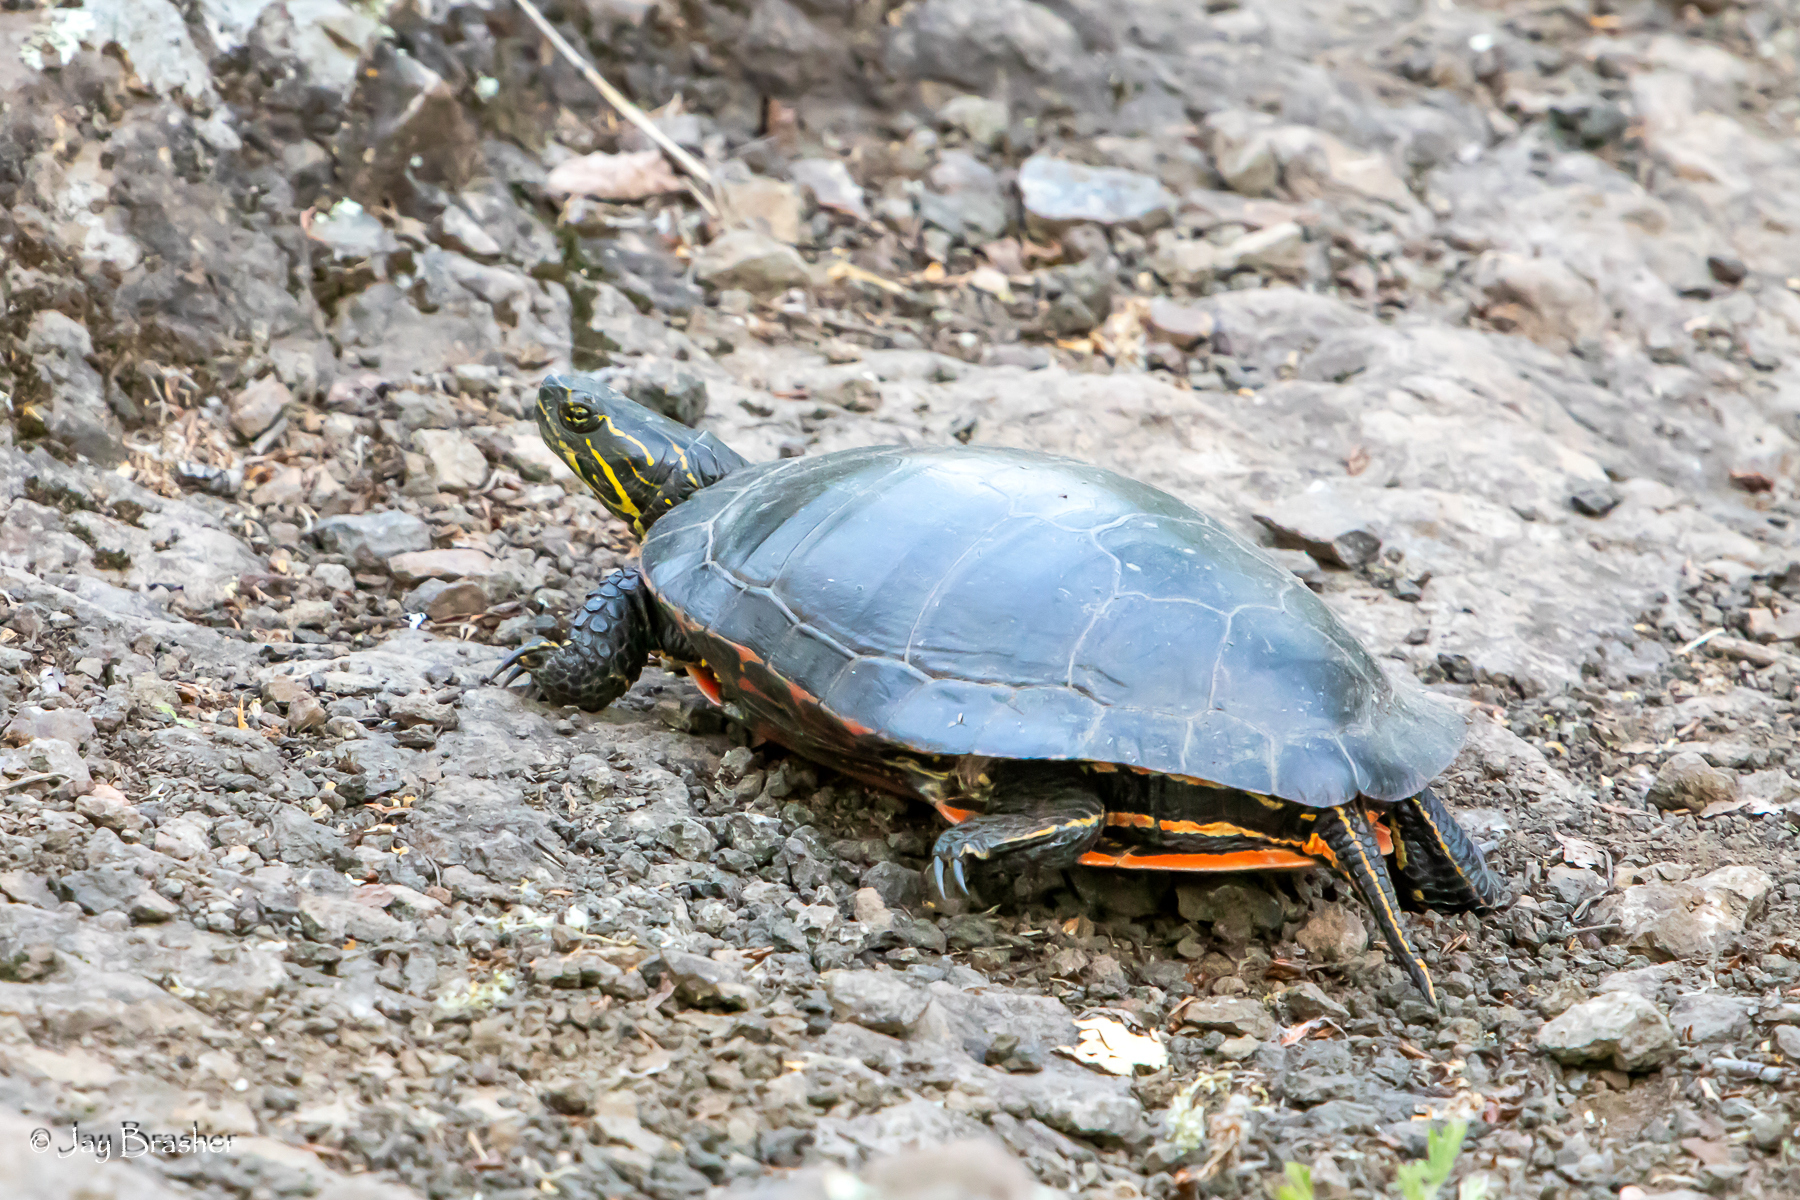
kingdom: Animalia
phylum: Chordata
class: Testudines
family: Emydidae
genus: Chrysemys
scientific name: Chrysemys picta
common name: Painted turtle
